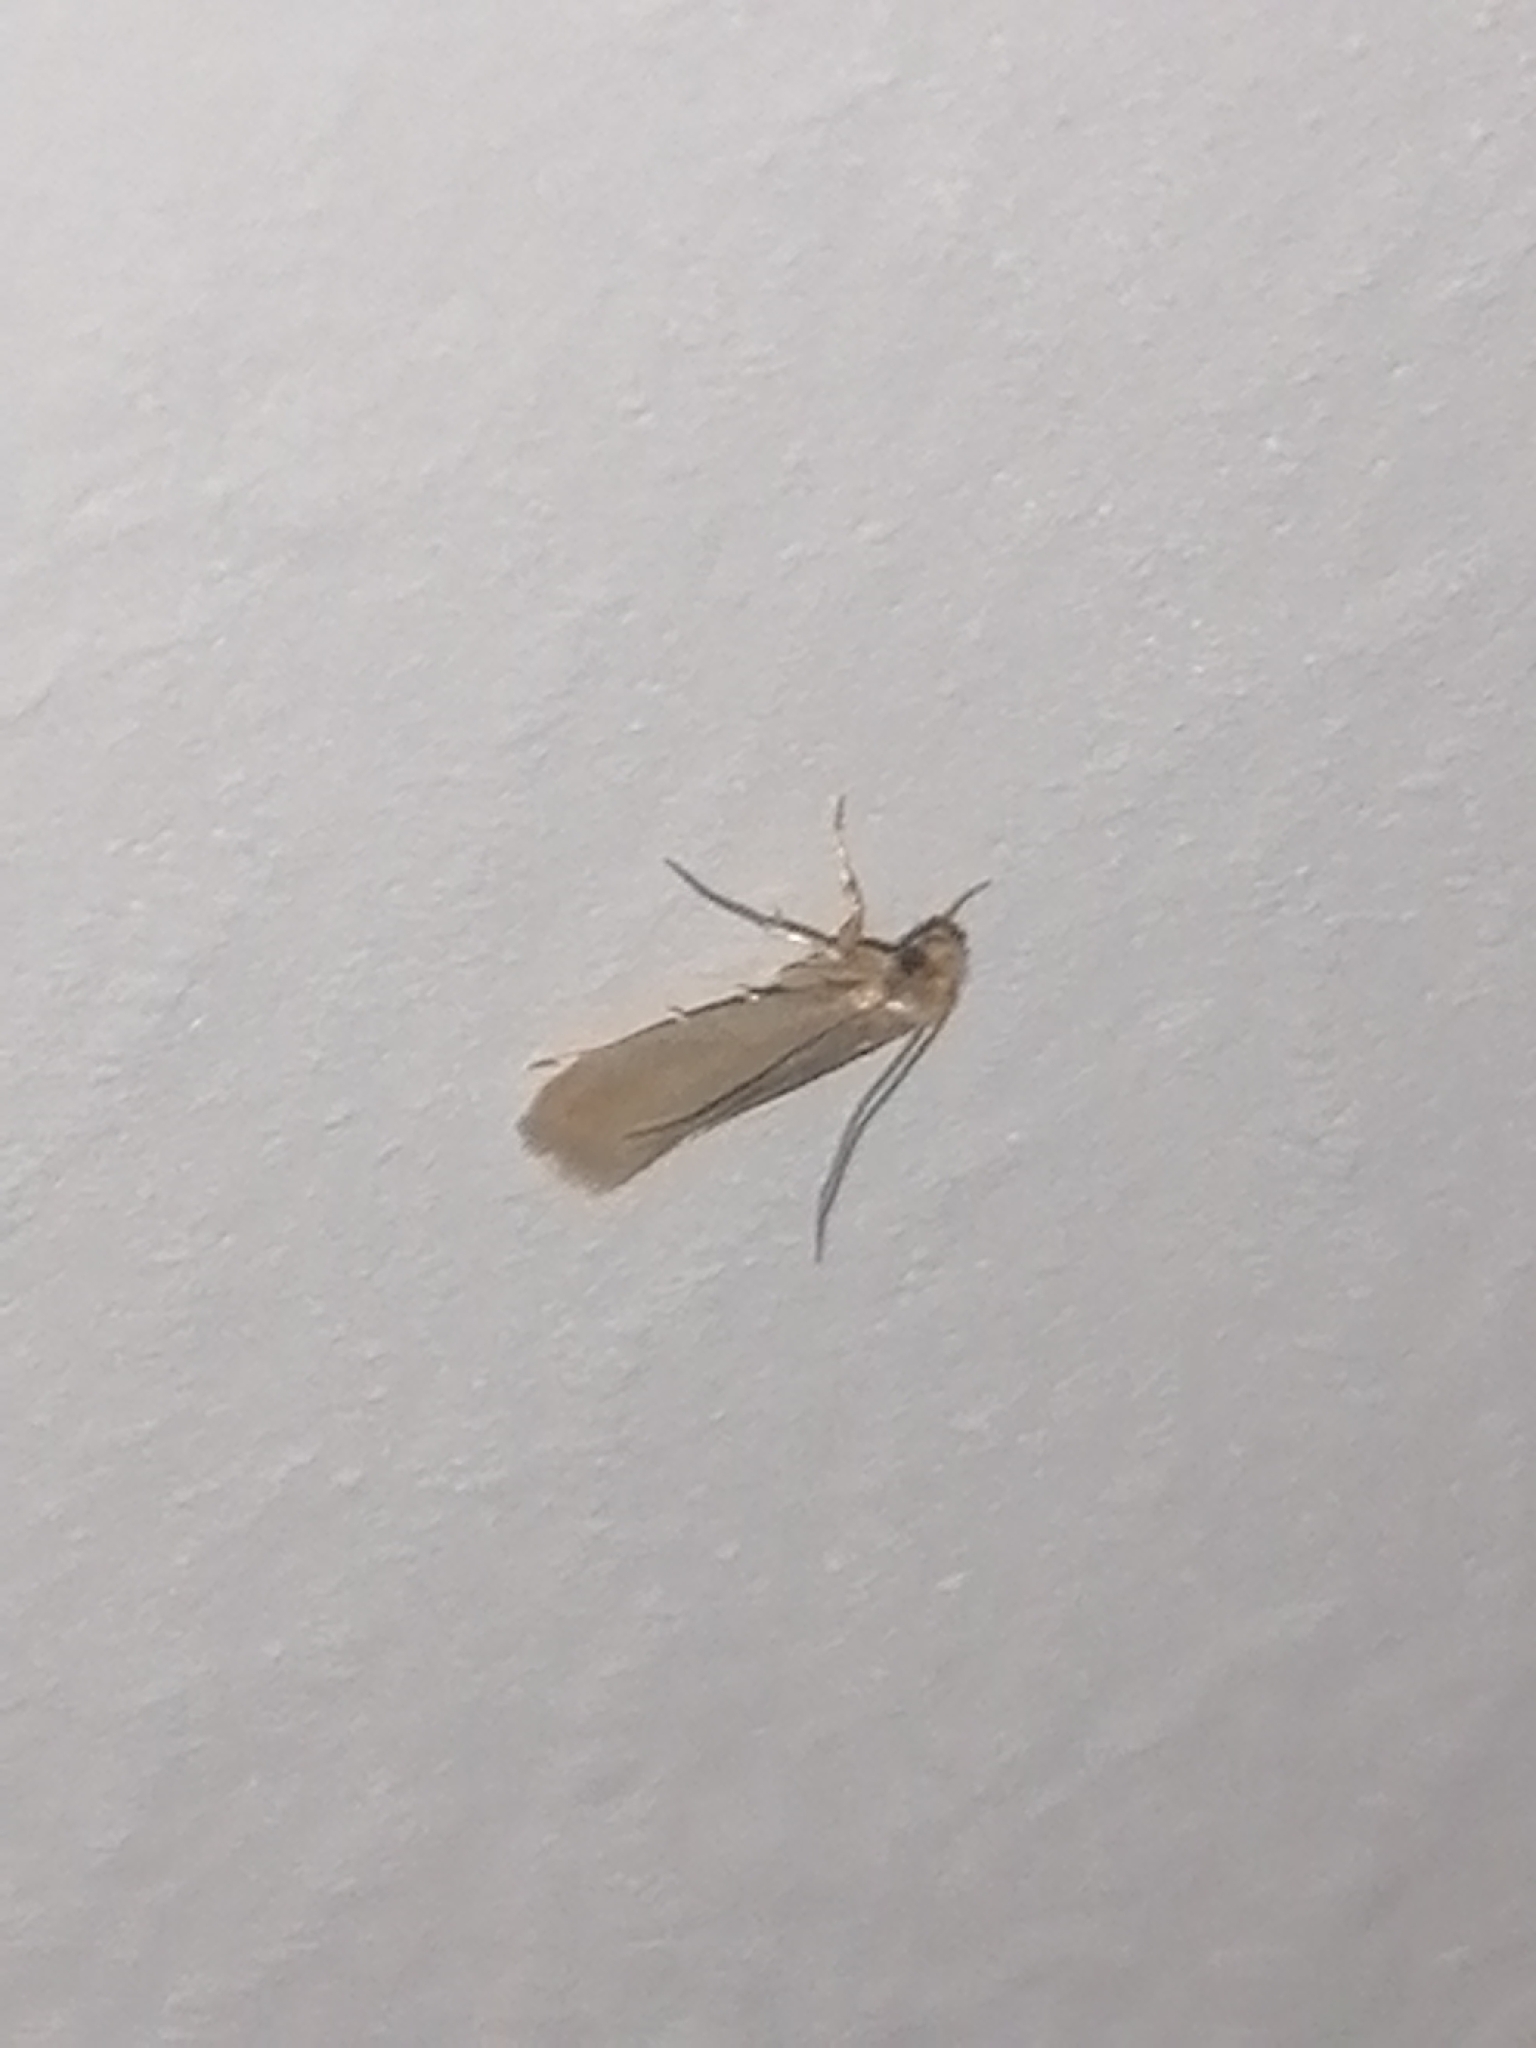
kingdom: Animalia
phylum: Arthropoda
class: Insecta
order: Lepidoptera
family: Tineidae
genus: Tineola
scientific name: Tineola bisselliella
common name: Webbing clothes moth
